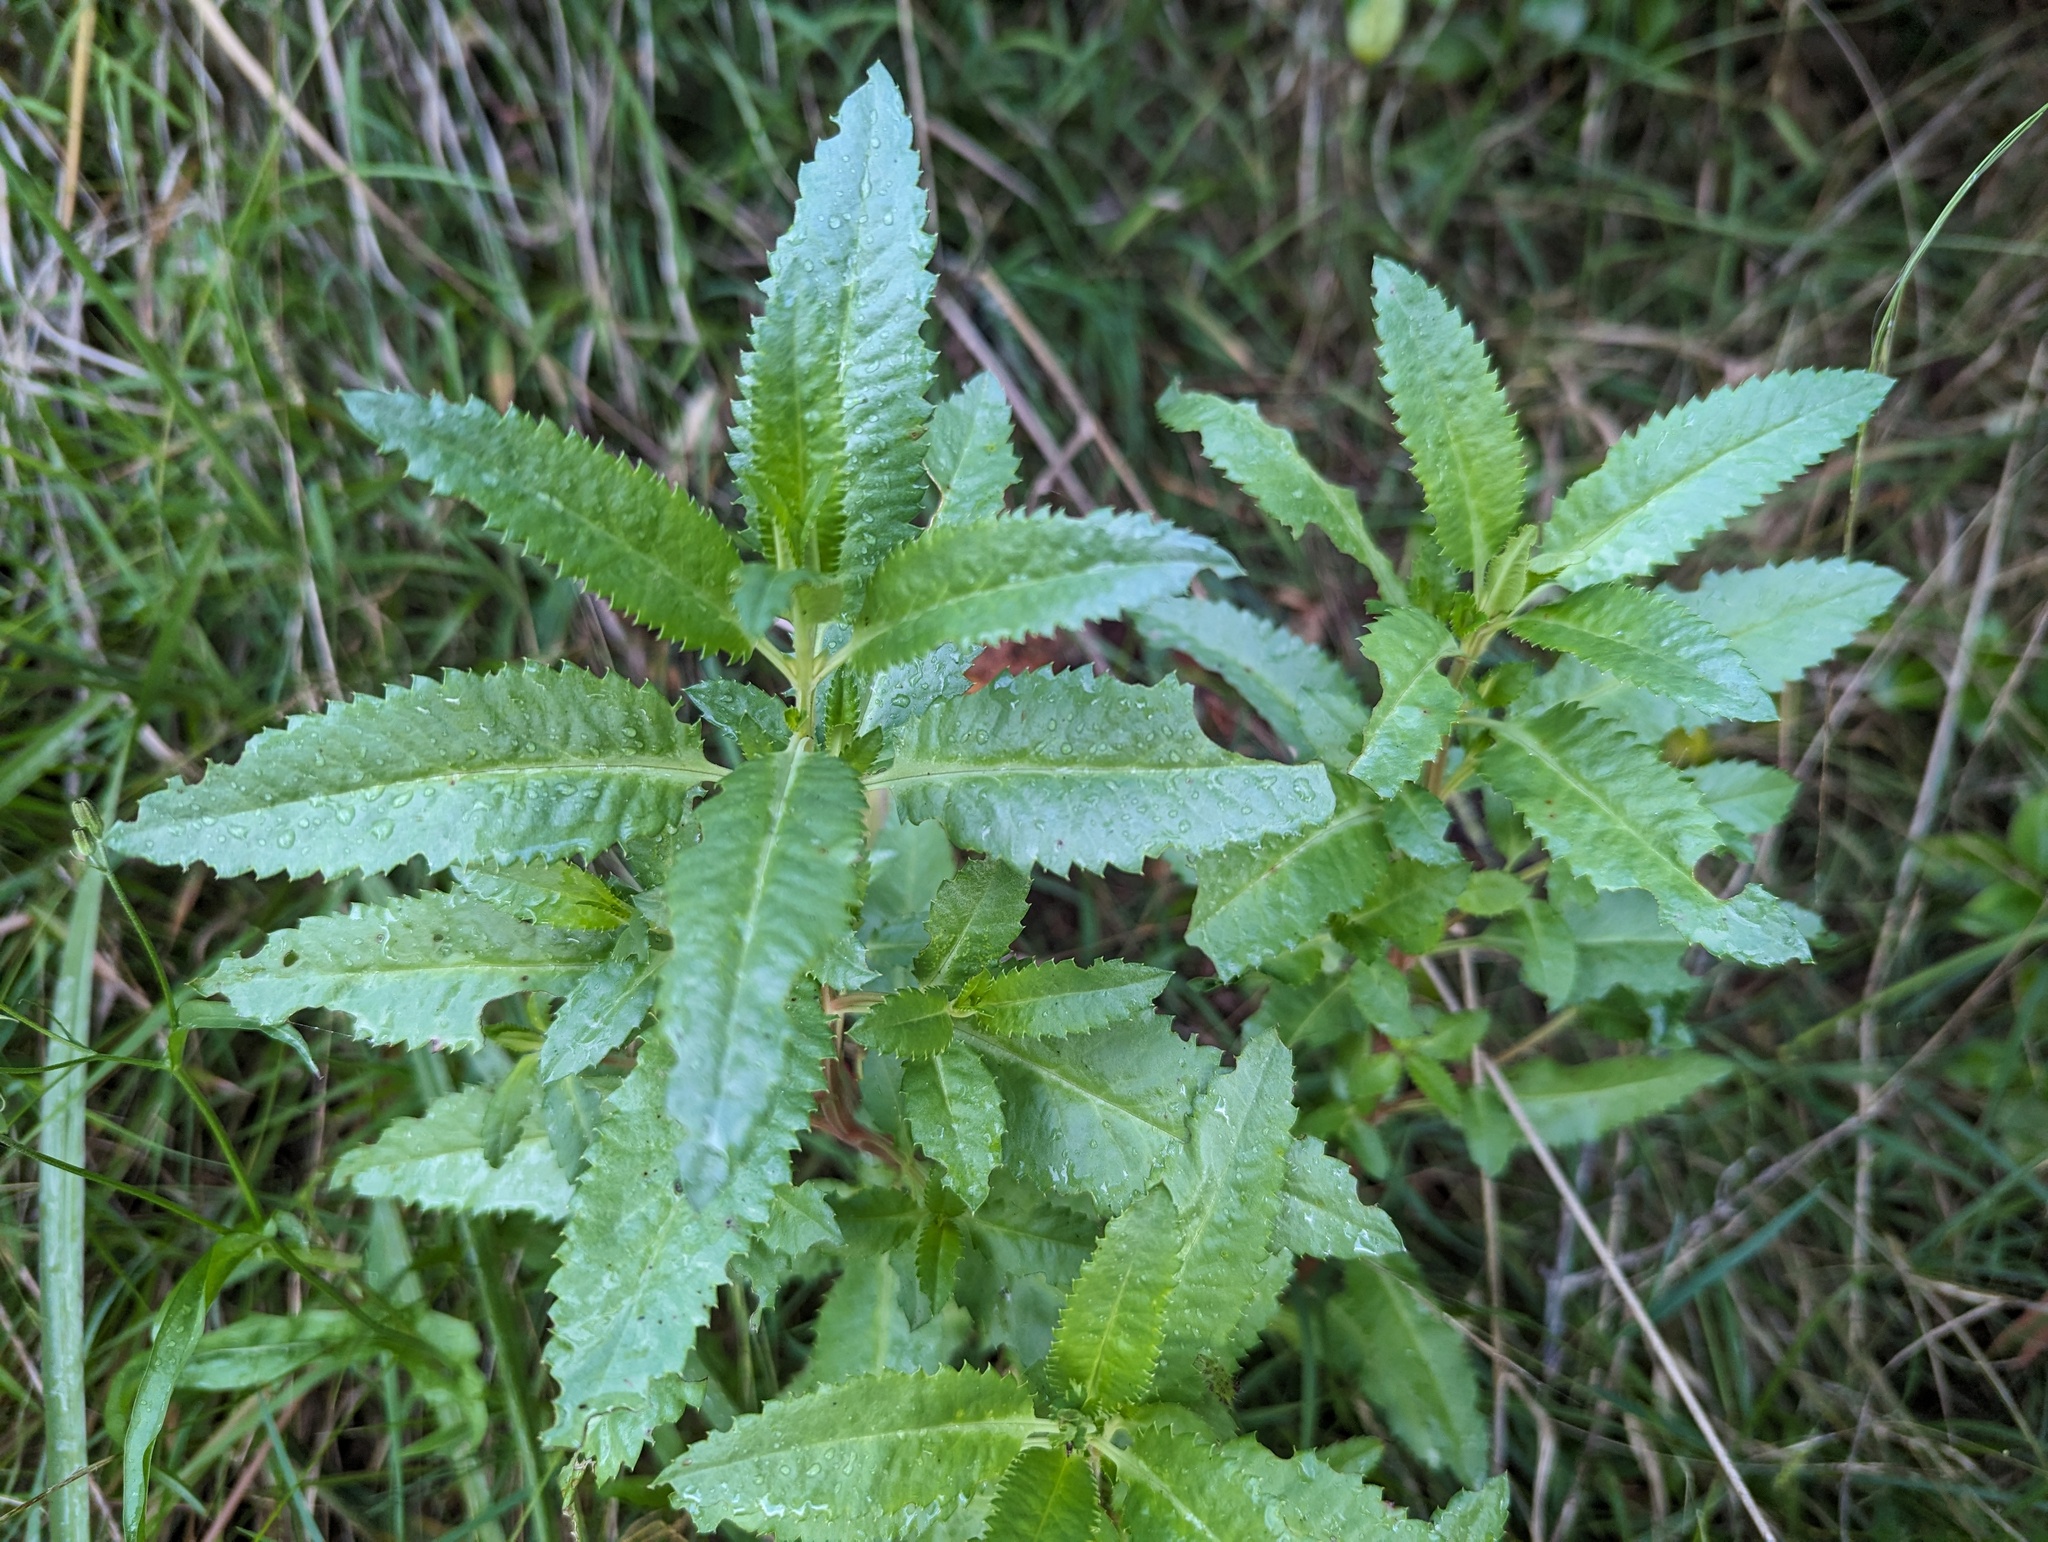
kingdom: Plantae
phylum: Tracheophyta
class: Magnoliopsida
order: Saxifragales
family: Haloragaceae
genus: Haloragis
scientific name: Haloragis erecta
